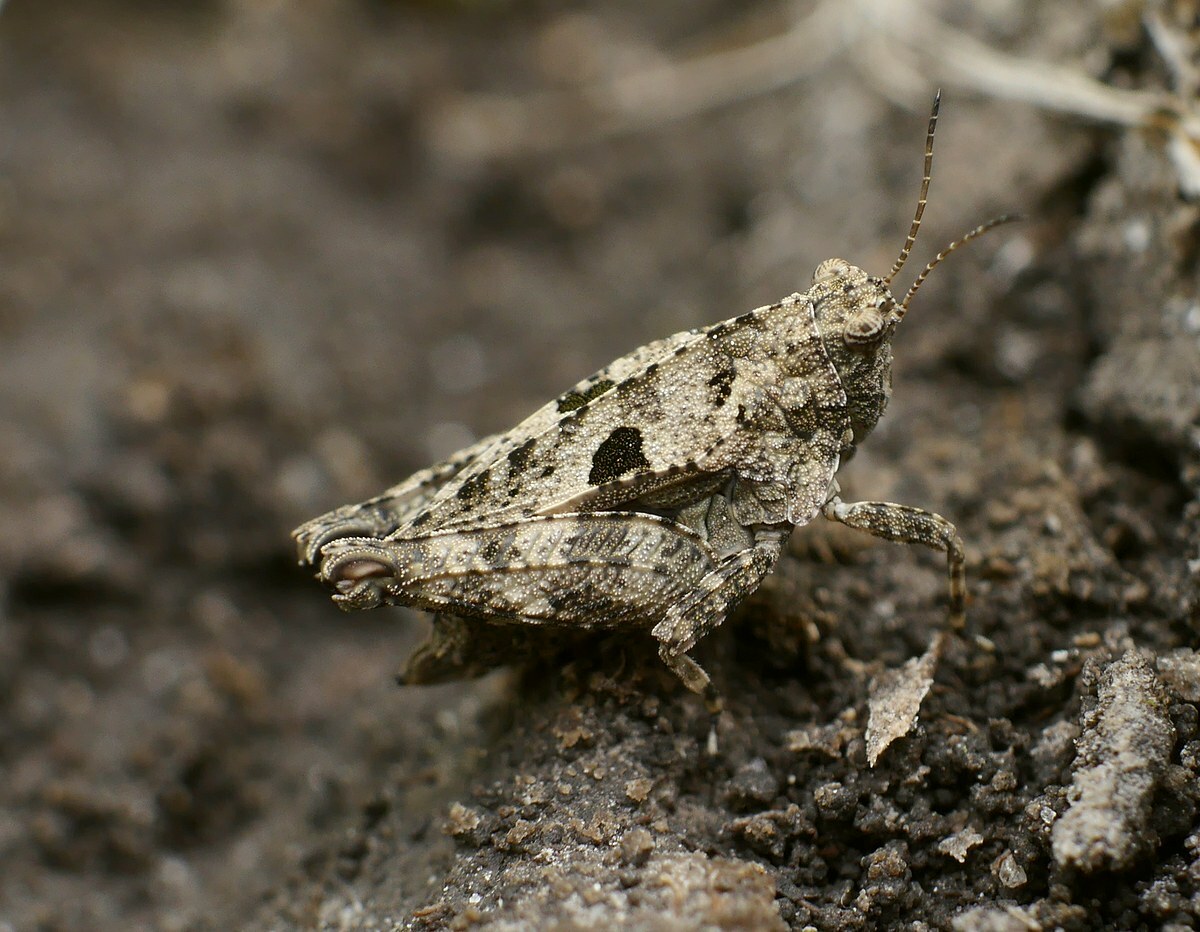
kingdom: Animalia
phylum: Arthropoda
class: Insecta
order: Orthoptera
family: Tetrigidae
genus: Tetrix
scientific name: Tetrix tenuicornis
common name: Long-horned groundhopper
